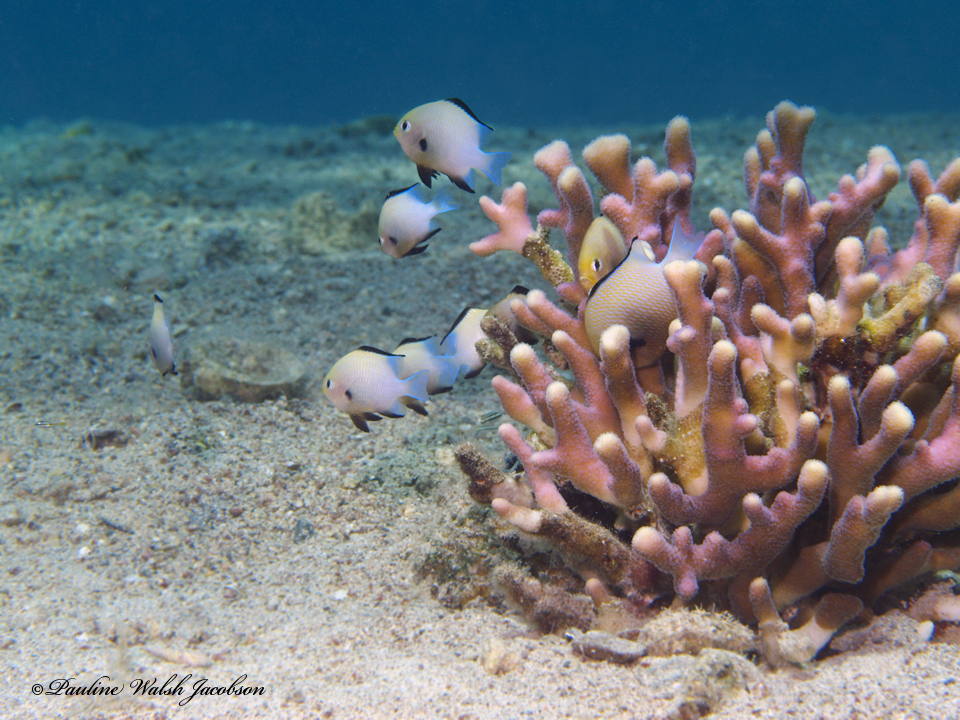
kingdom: Animalia
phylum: Chordata
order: Perciformes
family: Pomacentridae
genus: Dascyllus
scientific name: Dascyllus marginatus
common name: Red sea dascyllus
